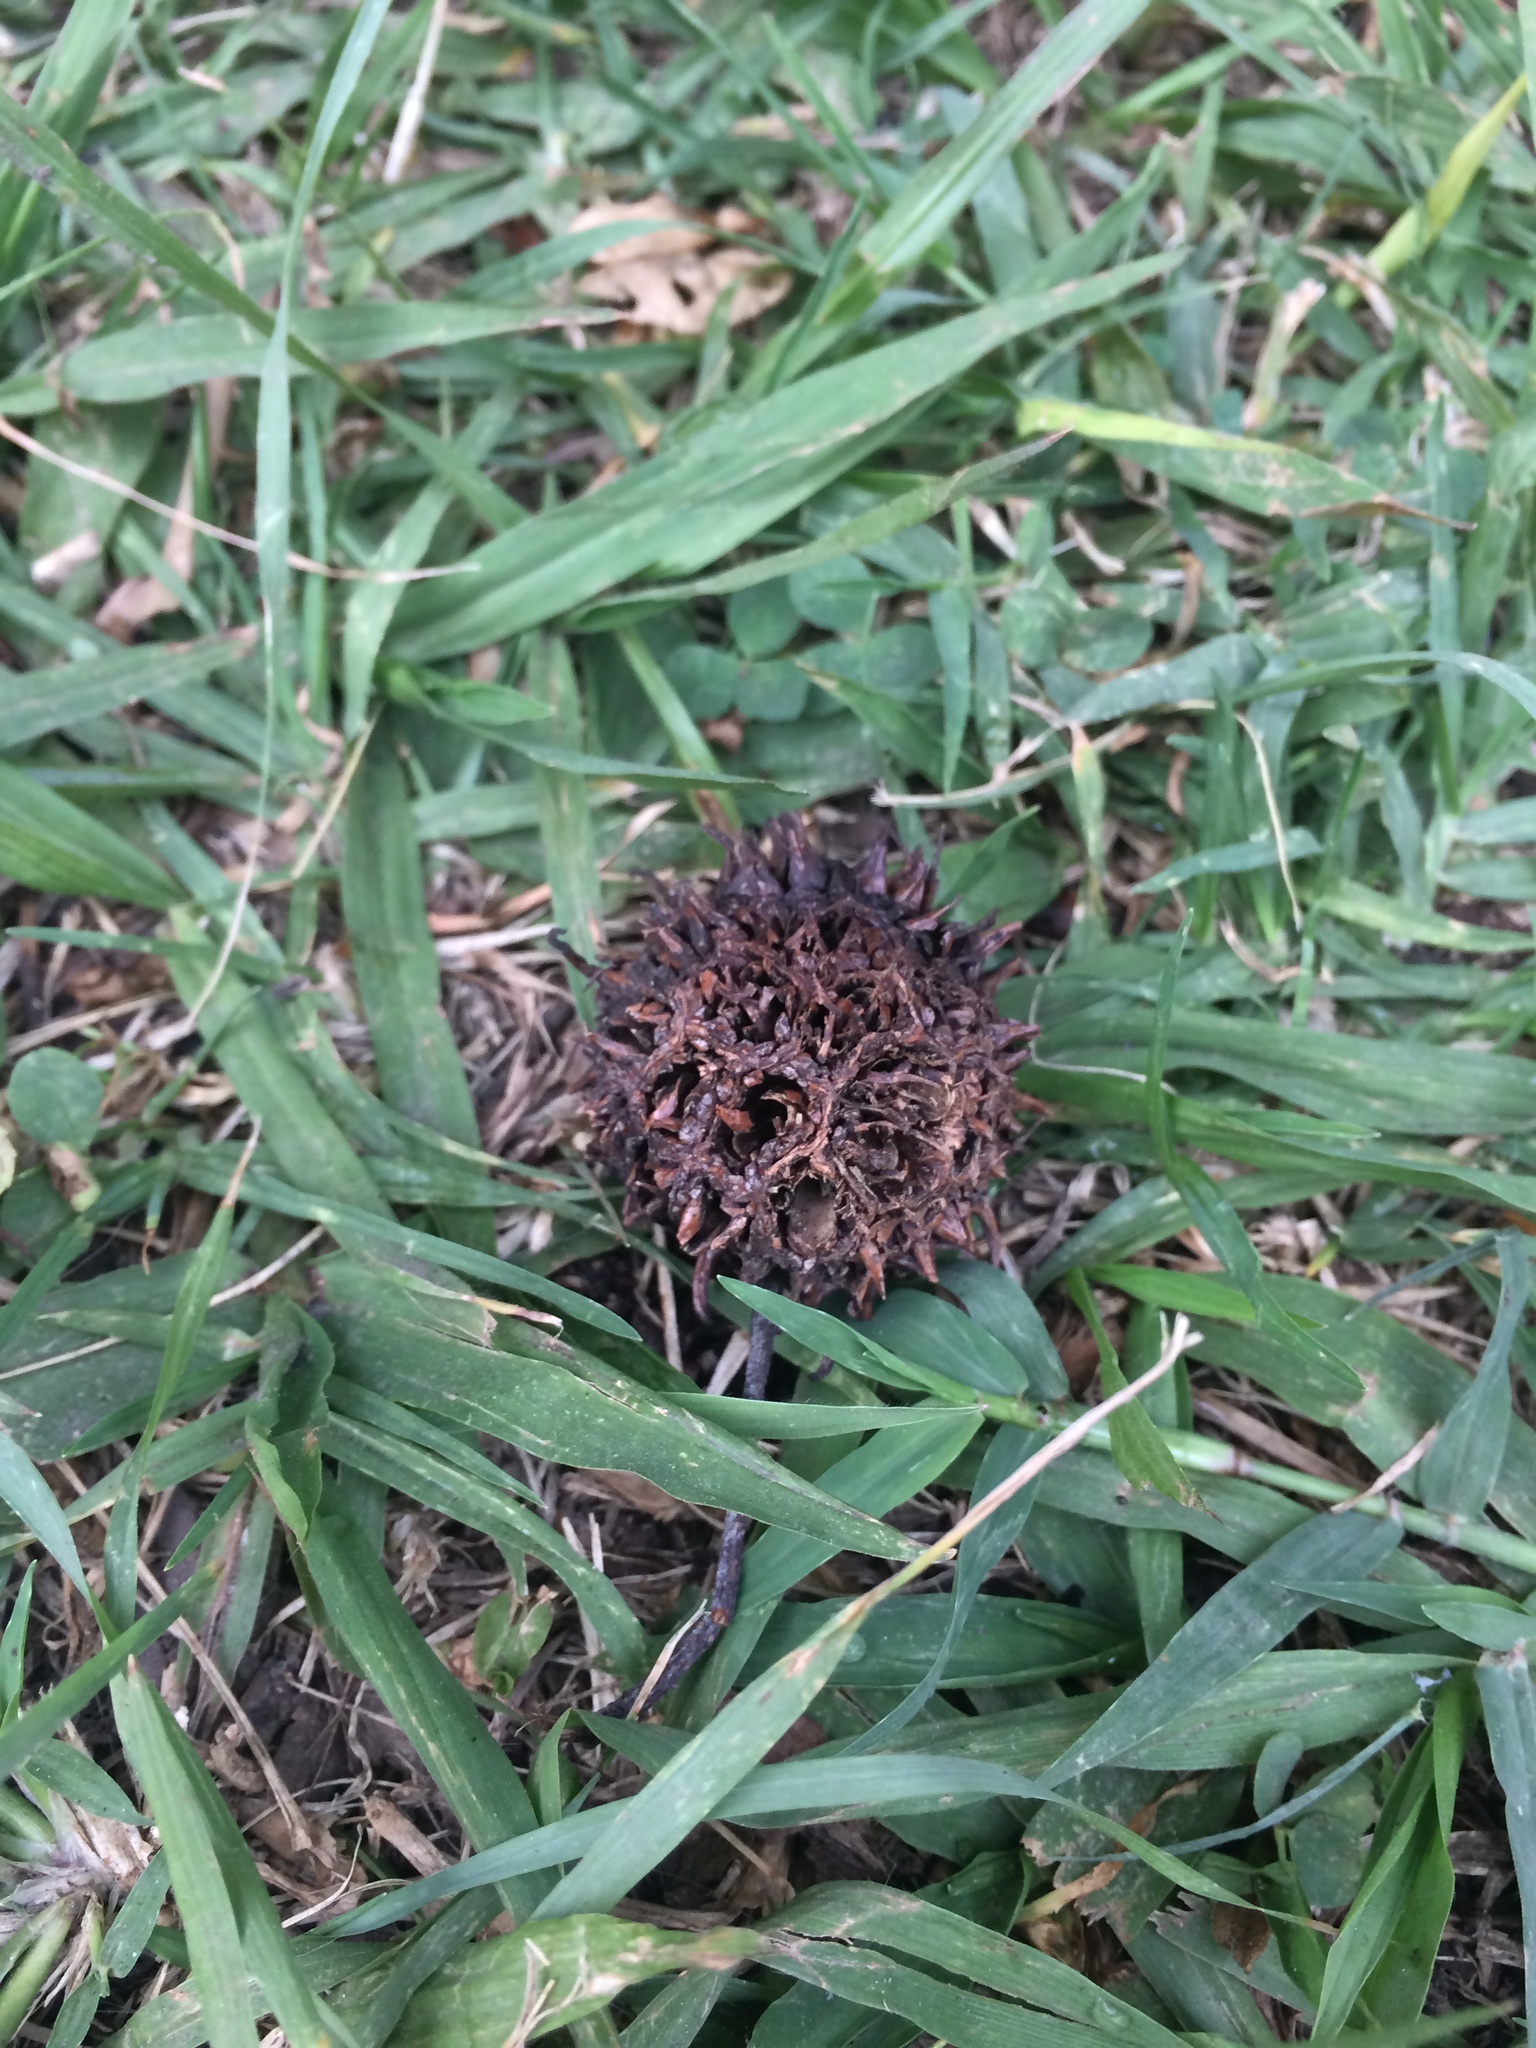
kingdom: Plantae
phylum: Tracheophyta
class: Magnoliopsida
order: Saxifragales
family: Altingiaceae
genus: Liquidambar
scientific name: Liquidambar styraciflua
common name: Sweet gum
